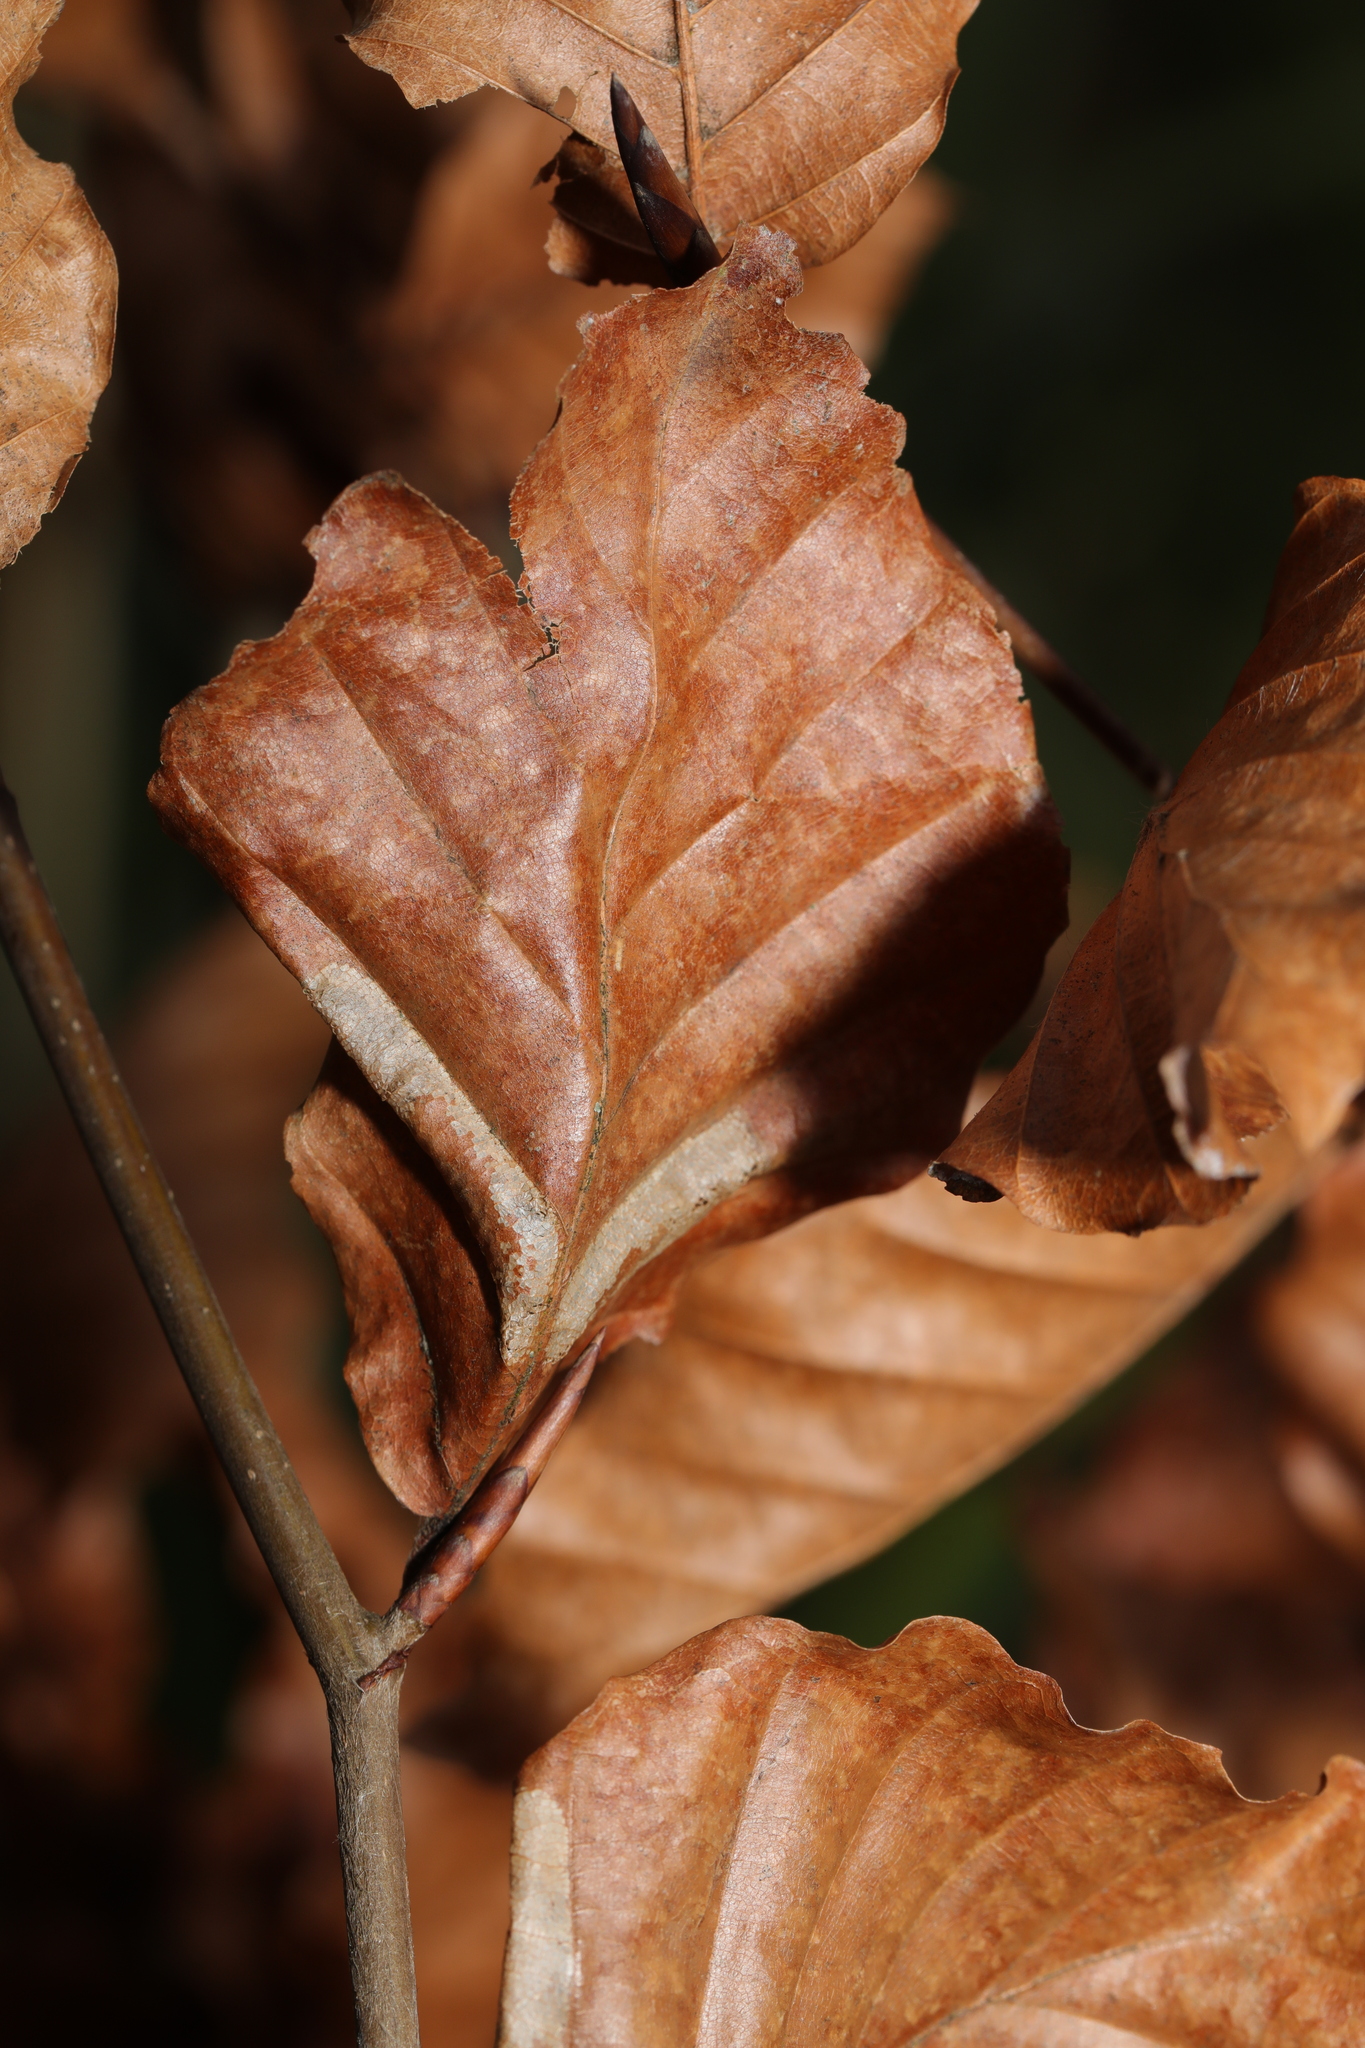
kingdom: Plantae
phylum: Tracheophyta
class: Magnoliopsida
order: Fagales
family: Fagaceae
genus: Fagus
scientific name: Fagus sylvatica
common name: Beech
